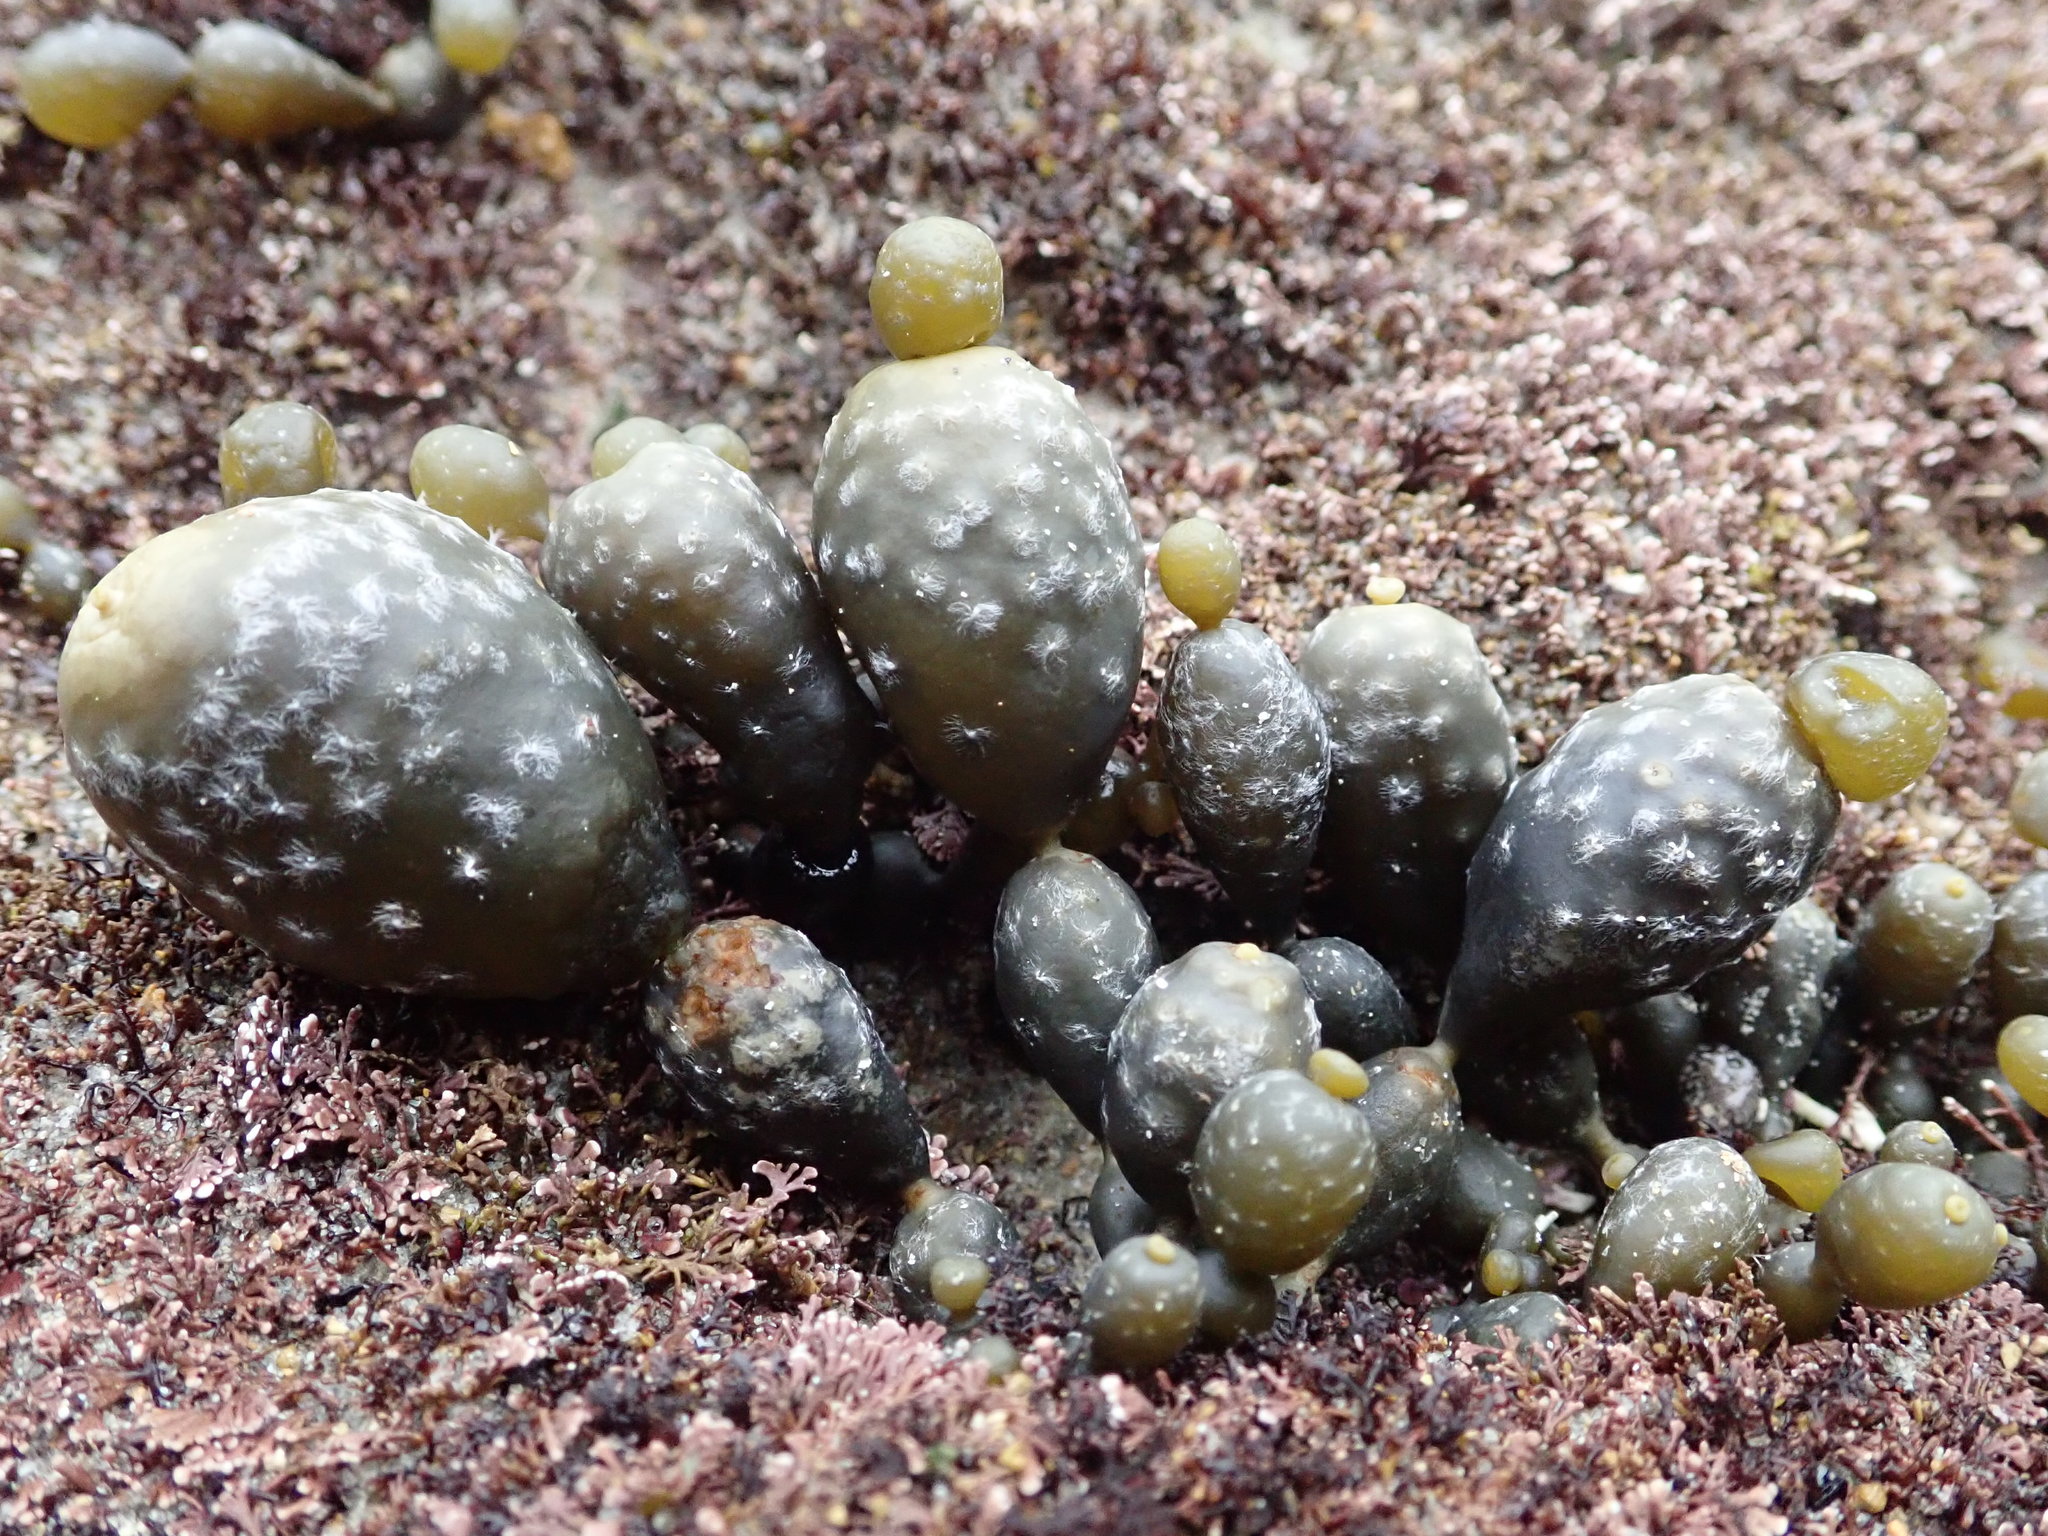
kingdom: Chromista
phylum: Ochrophyta
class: Phaeophyceae
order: Fucales
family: Hormosiraceae
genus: Hormosira
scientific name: Hormosira banksii
